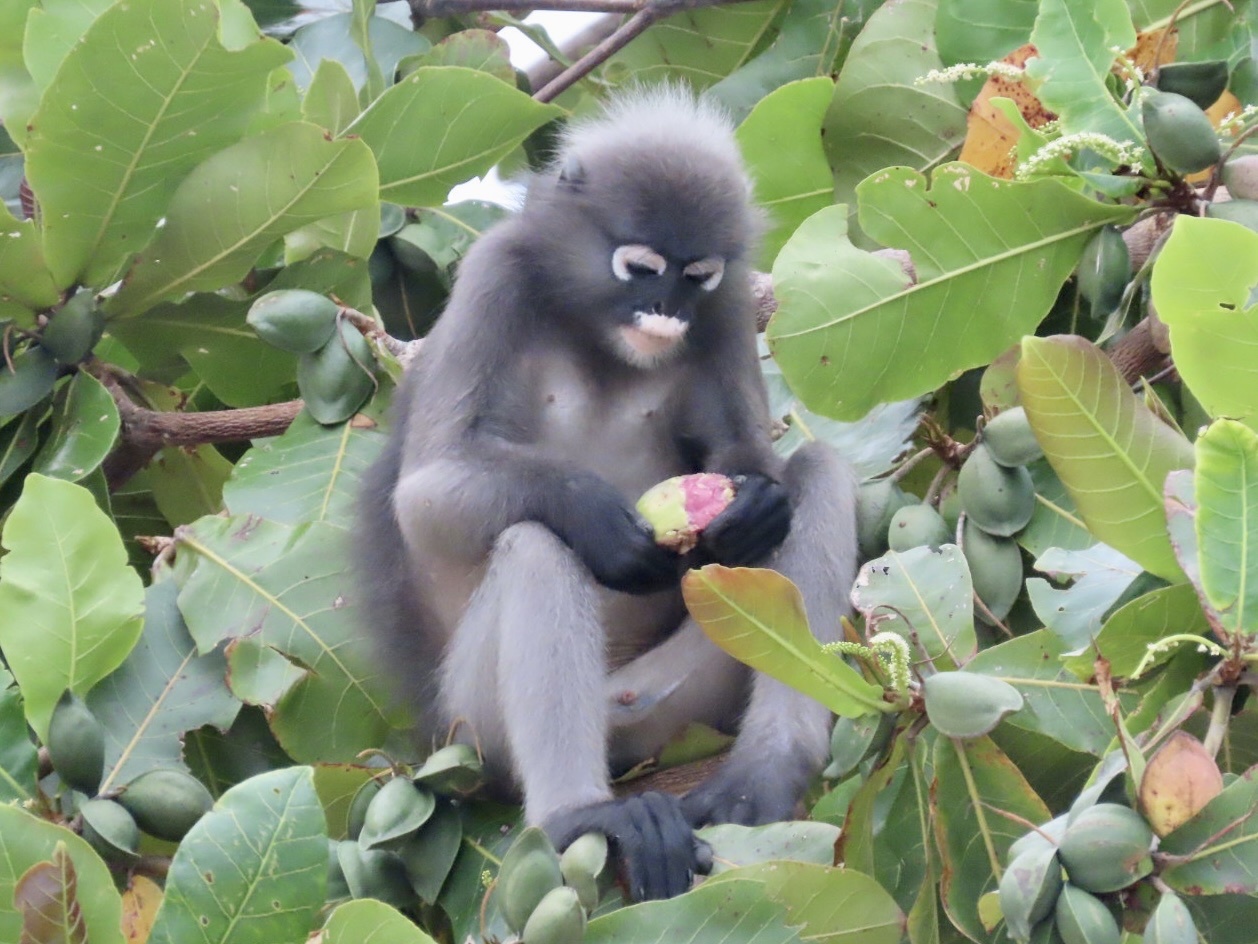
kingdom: Animalia
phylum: Chordata
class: Mammalia
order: Primates
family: Cercopithecidae
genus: Trachypithecus
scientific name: Trachypithecus obscurus
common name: Dusky leaf-monkey
